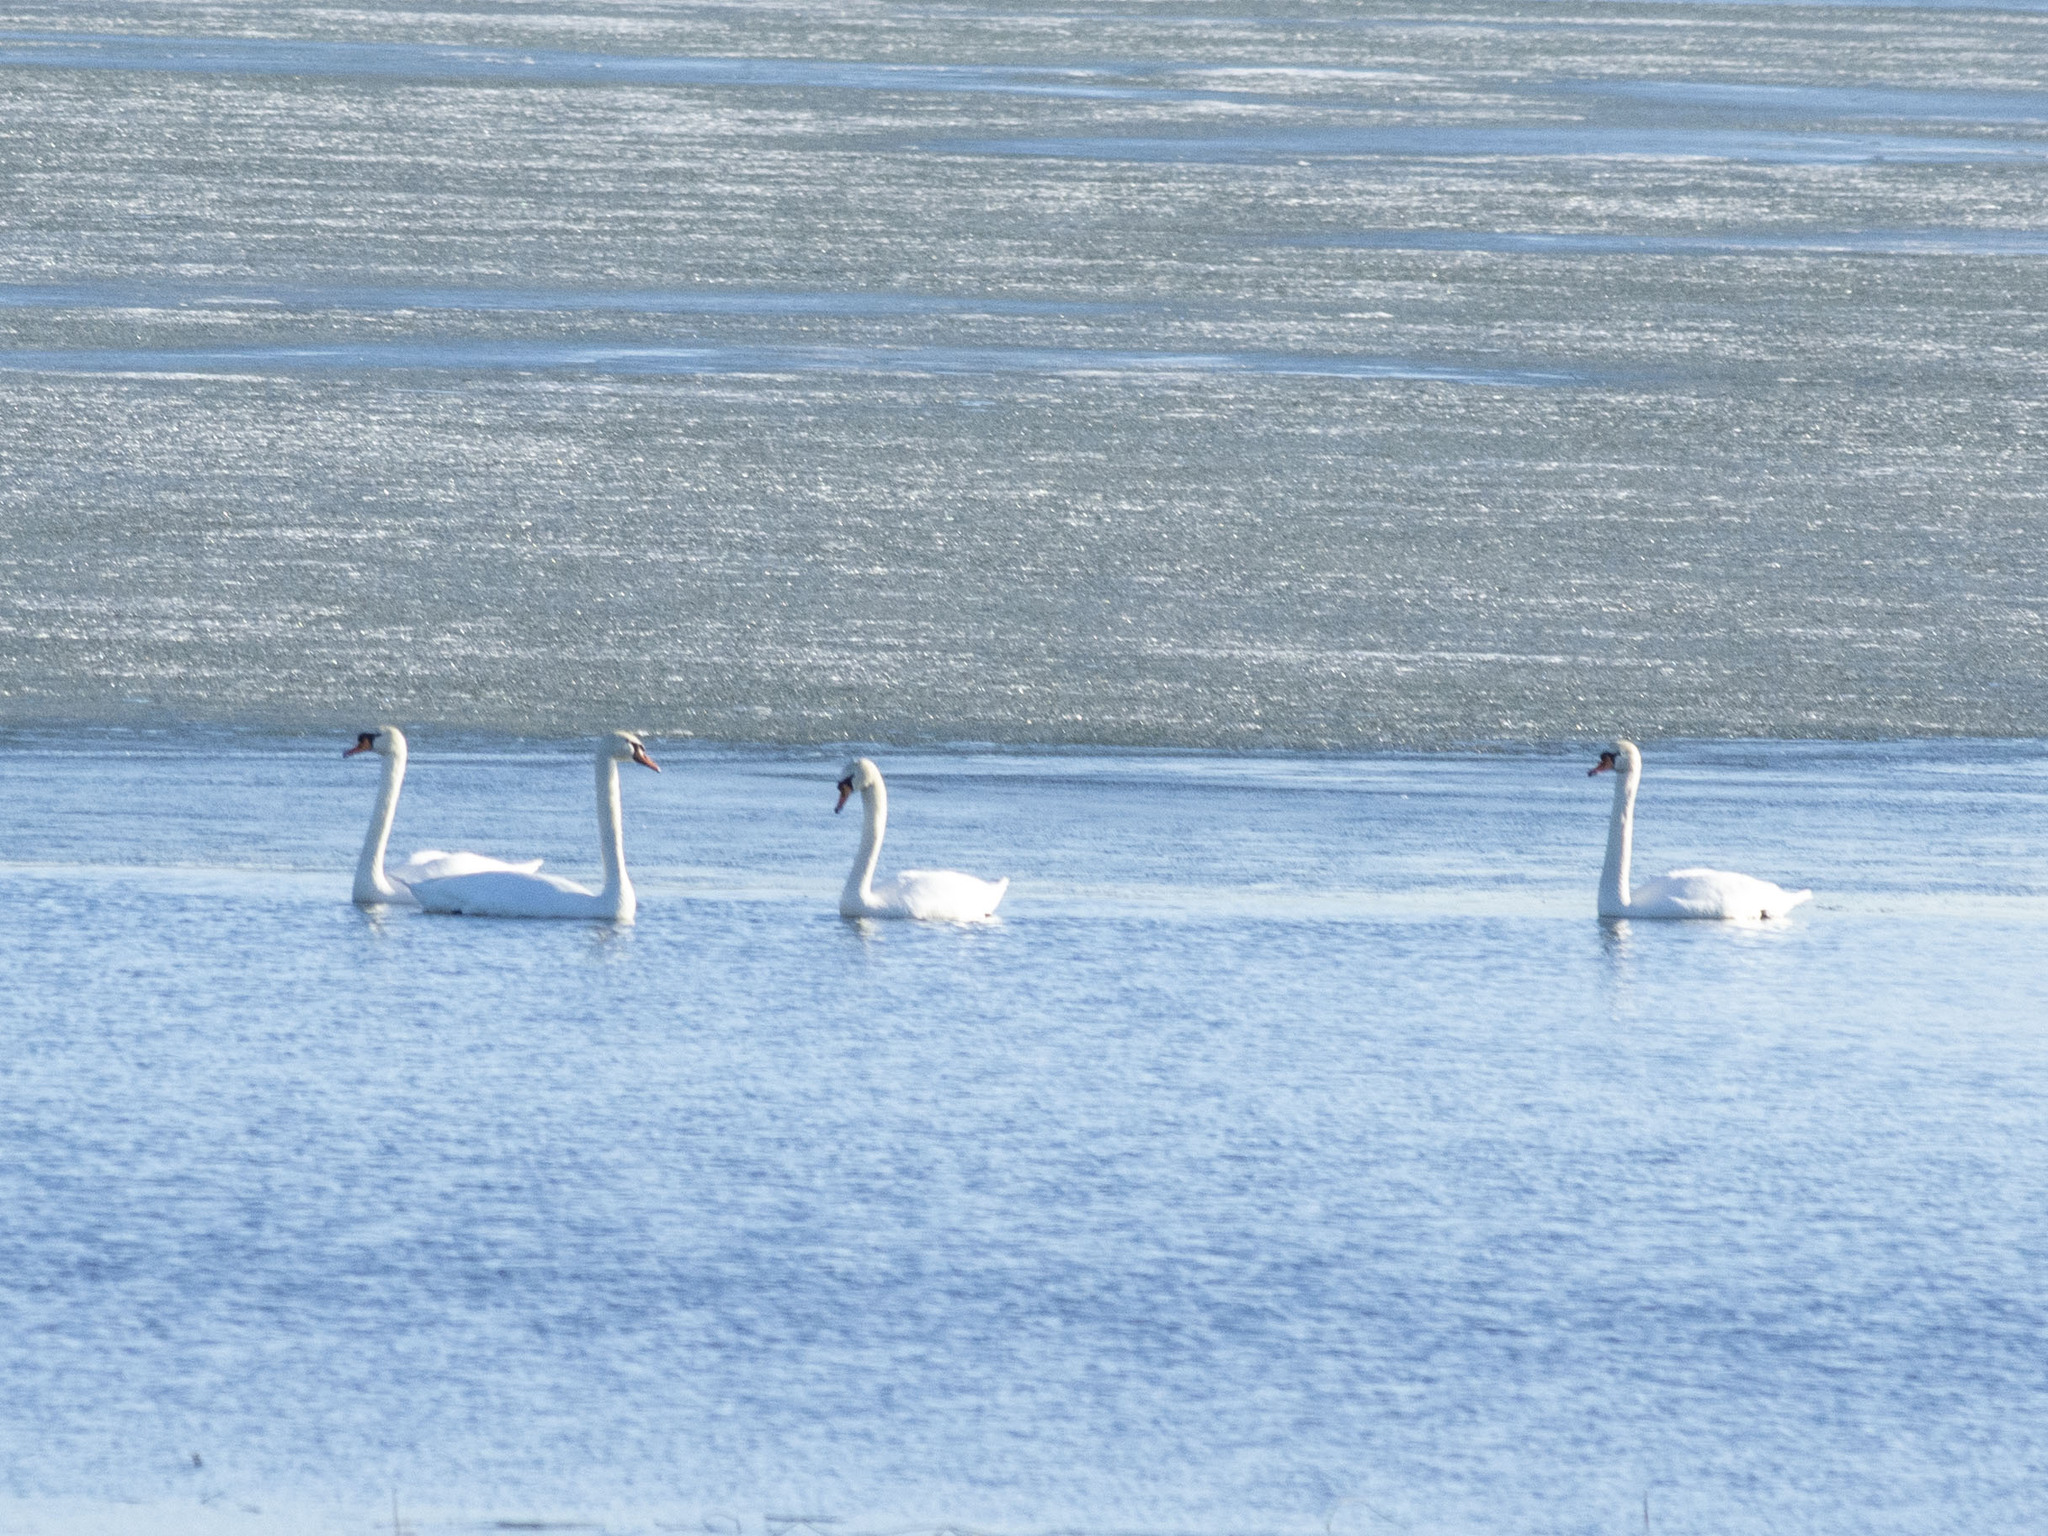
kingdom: Animalia
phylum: Chordata
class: Aves
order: Anseriformes
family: Anatidae
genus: Cygnus
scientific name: Cygnus olor
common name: Mute swan
